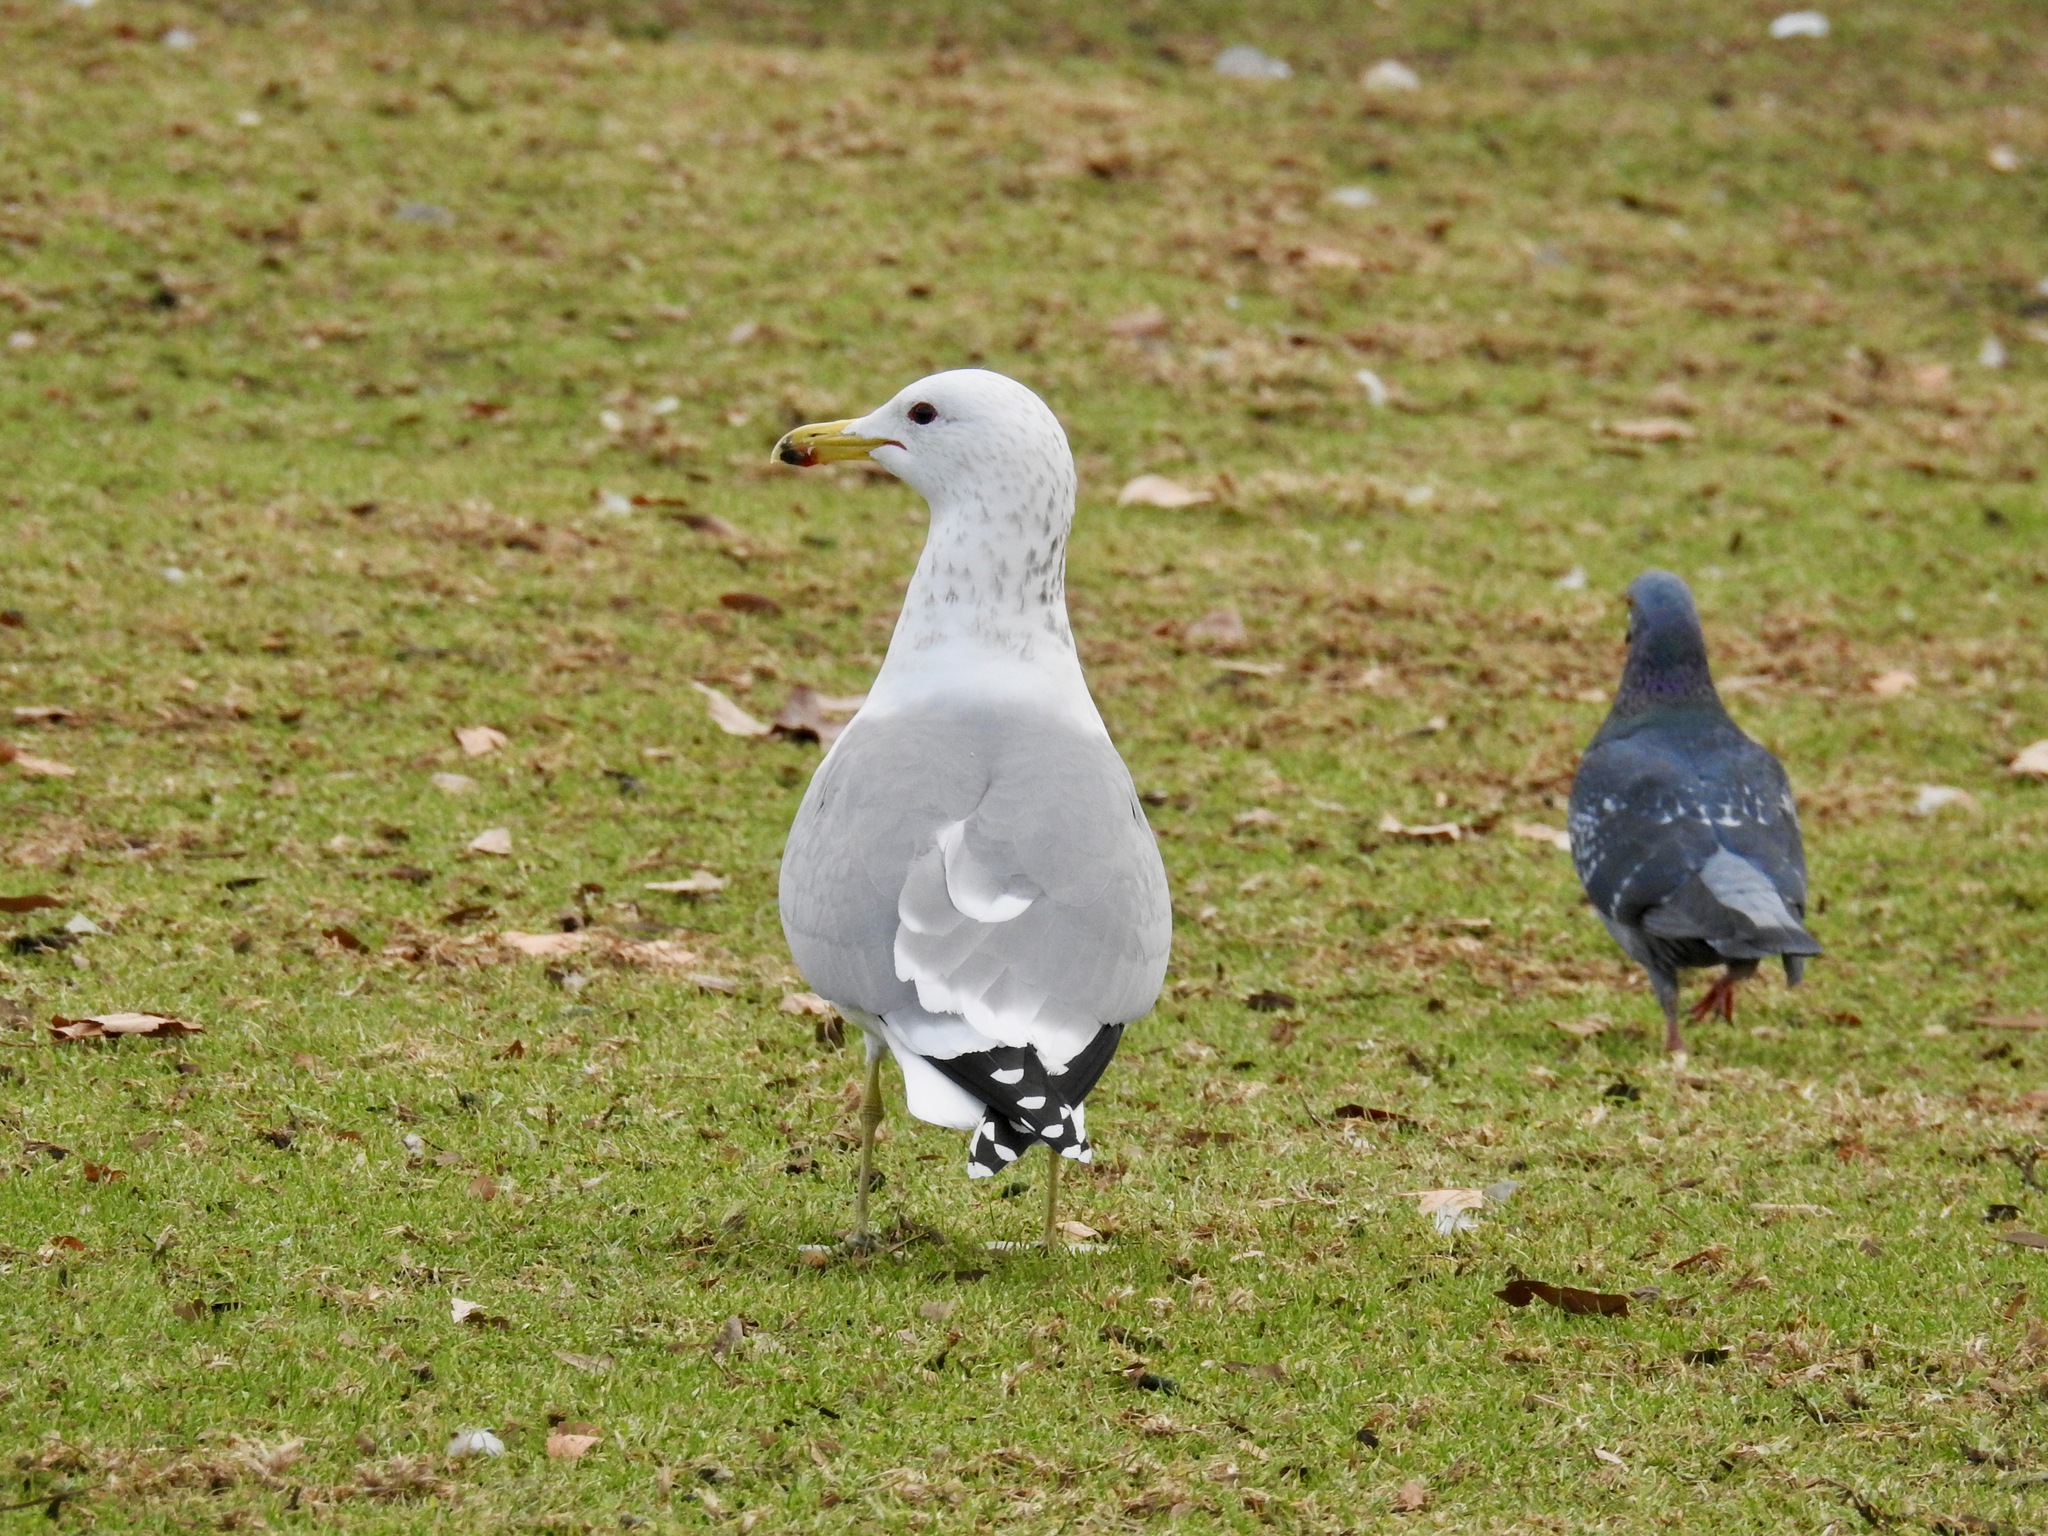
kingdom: Animalia
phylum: Chordata
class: Aves
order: Charadriiformes
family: Laridae
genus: Larus
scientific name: Larus californicus
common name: California gull
